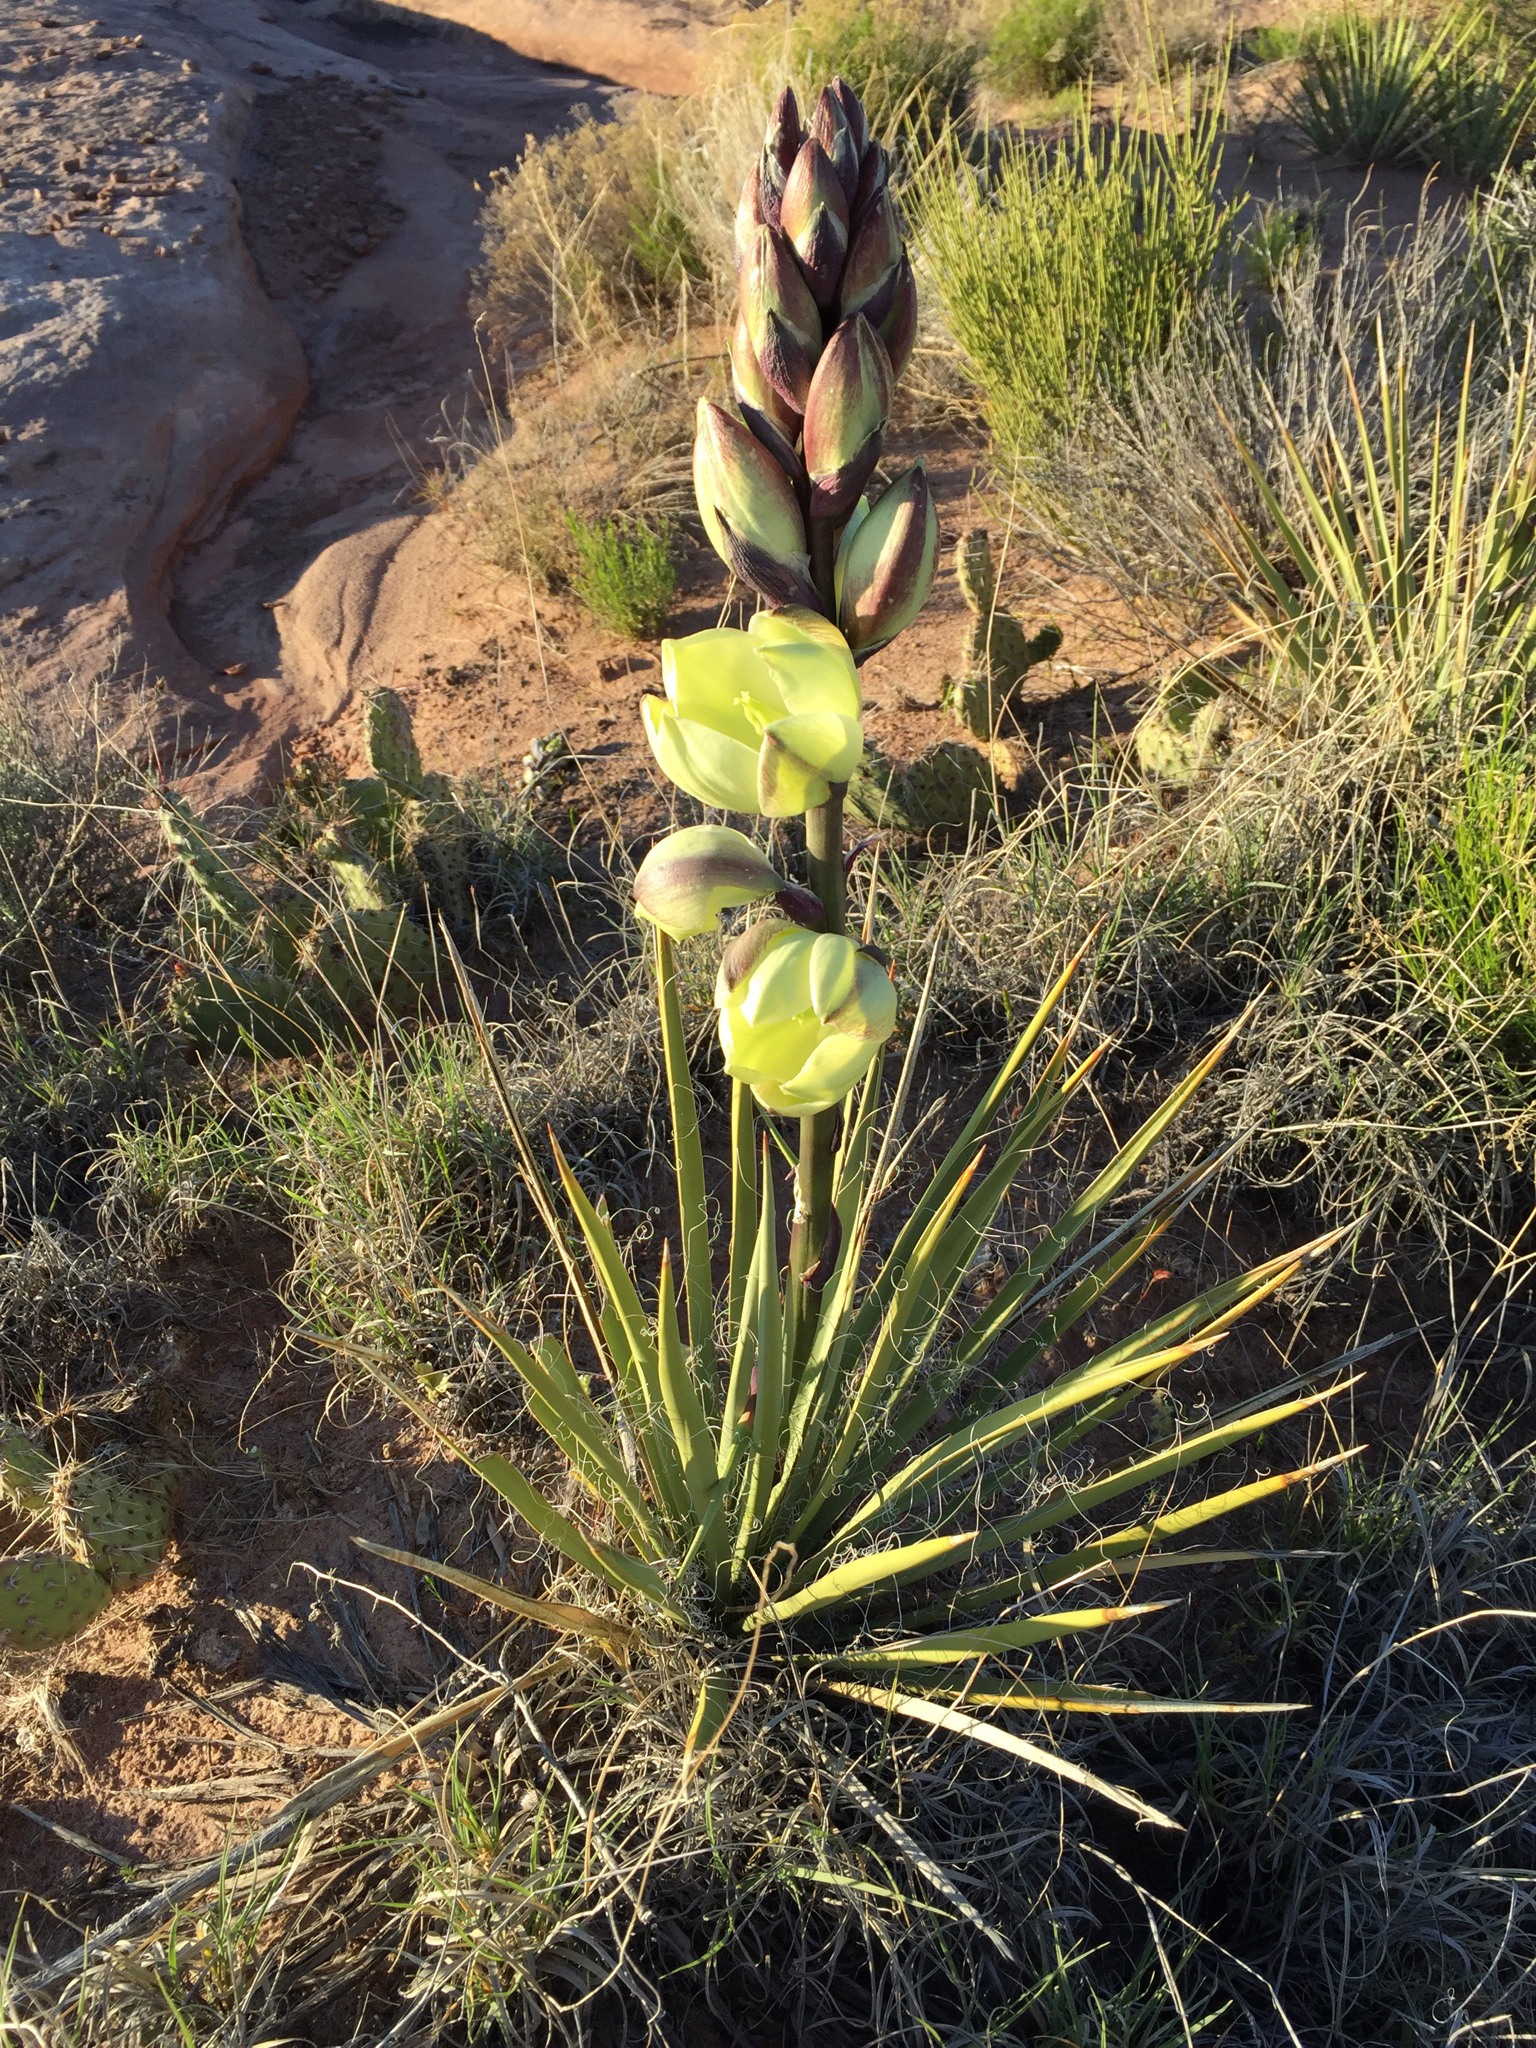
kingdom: Plantae
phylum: Tracheophyta
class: Liliopsida
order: Asparagales
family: Asparagaceae
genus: Yucca
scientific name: Yucca harrimaniae
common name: Harriman's yucca
